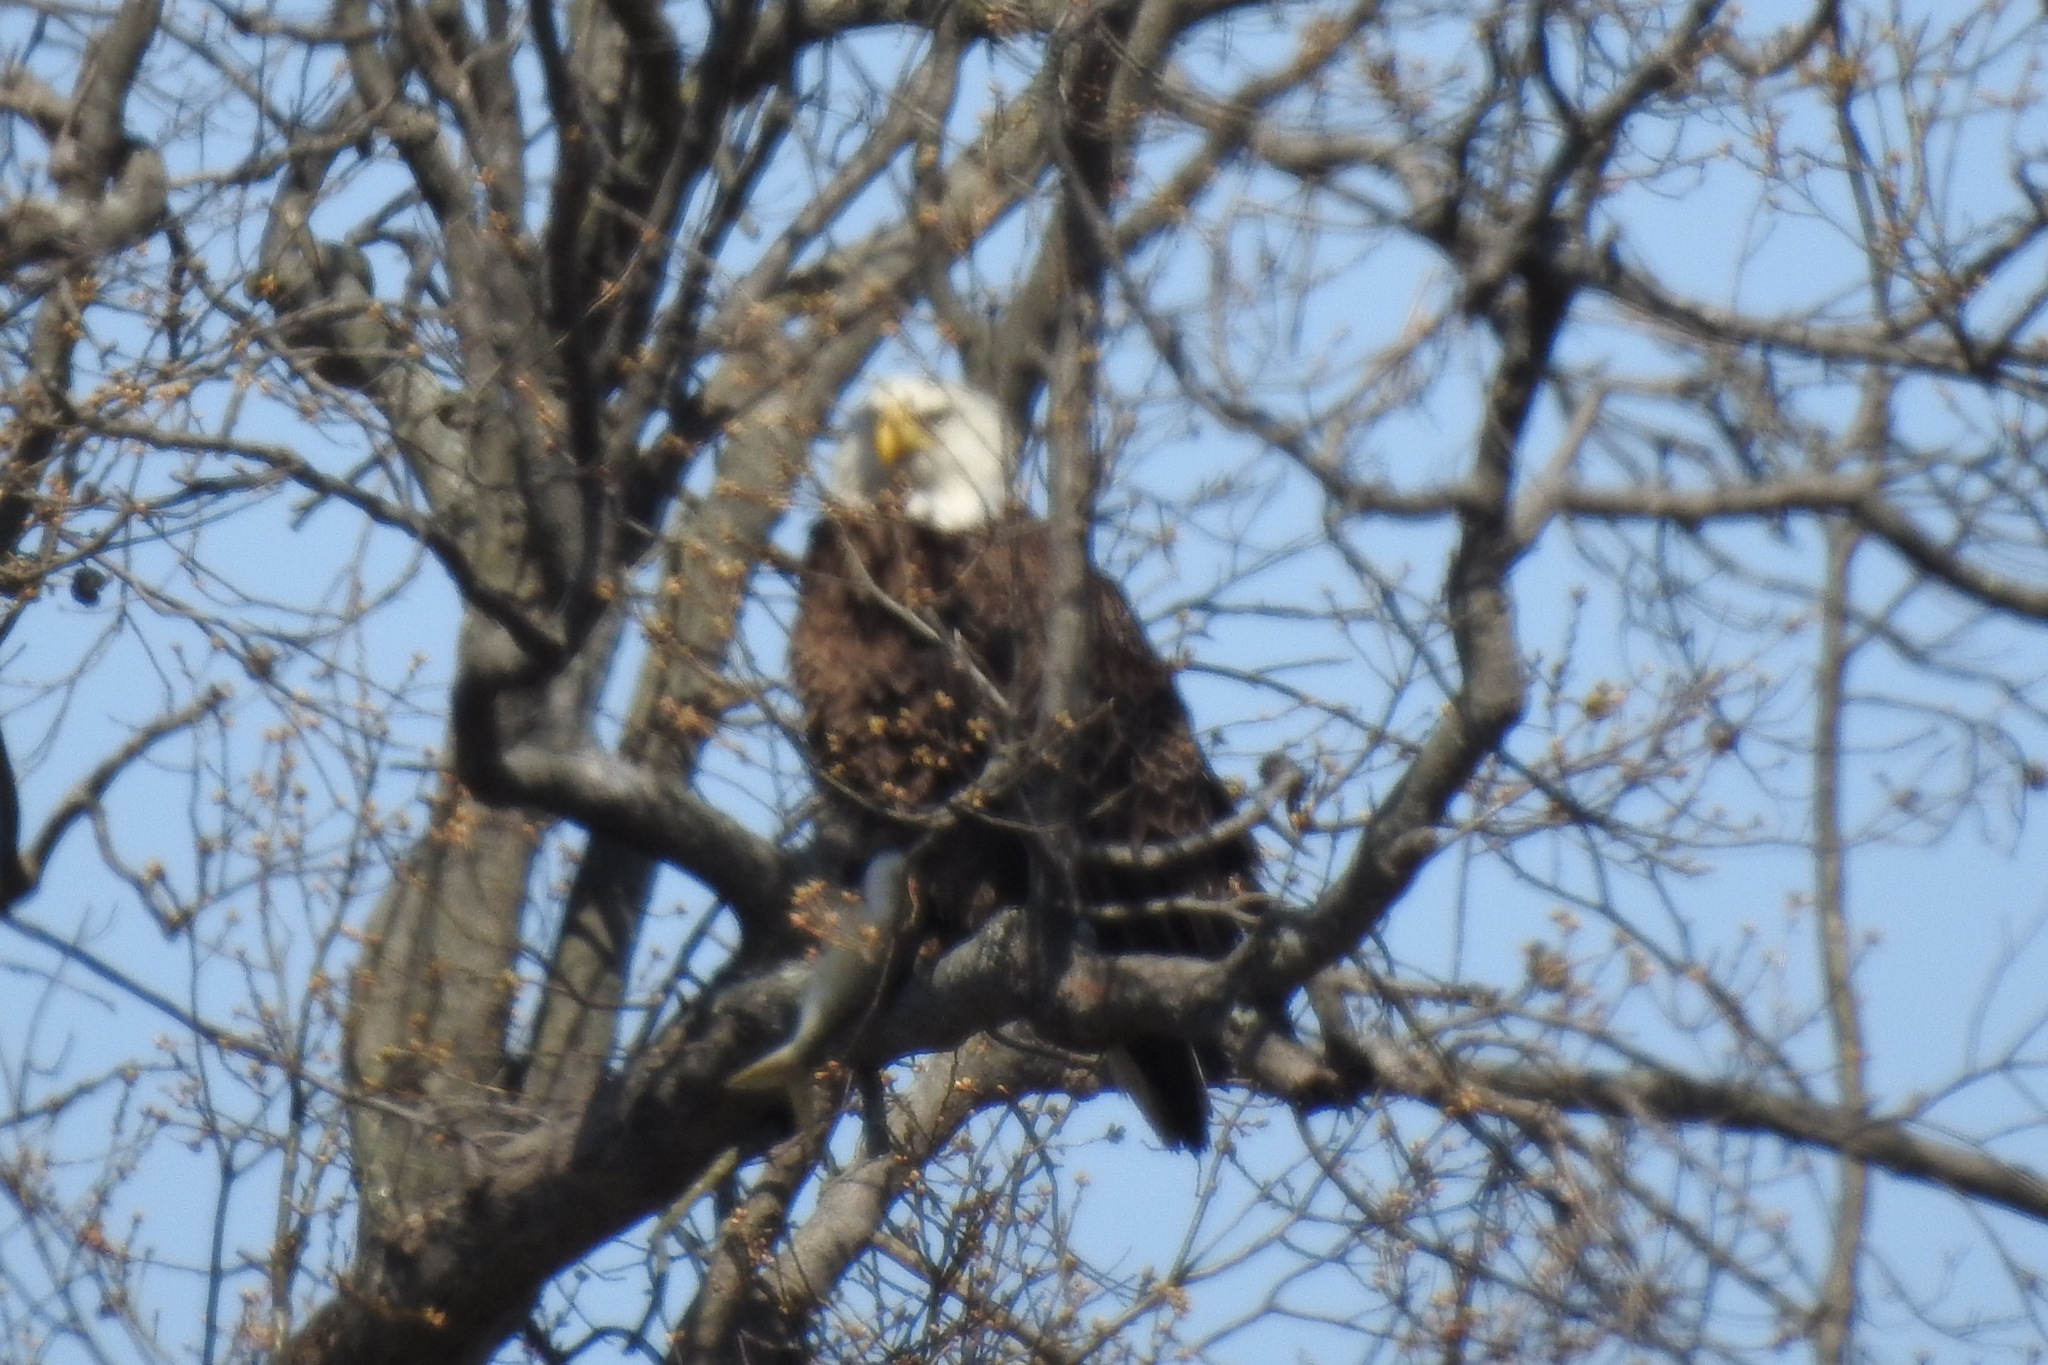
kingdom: Animalia
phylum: Chordata
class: Aves
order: Accipitriformes
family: Accipitridae
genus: Haliaeetus
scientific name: Haliaeetus leucocephalus
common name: Bald eagle
